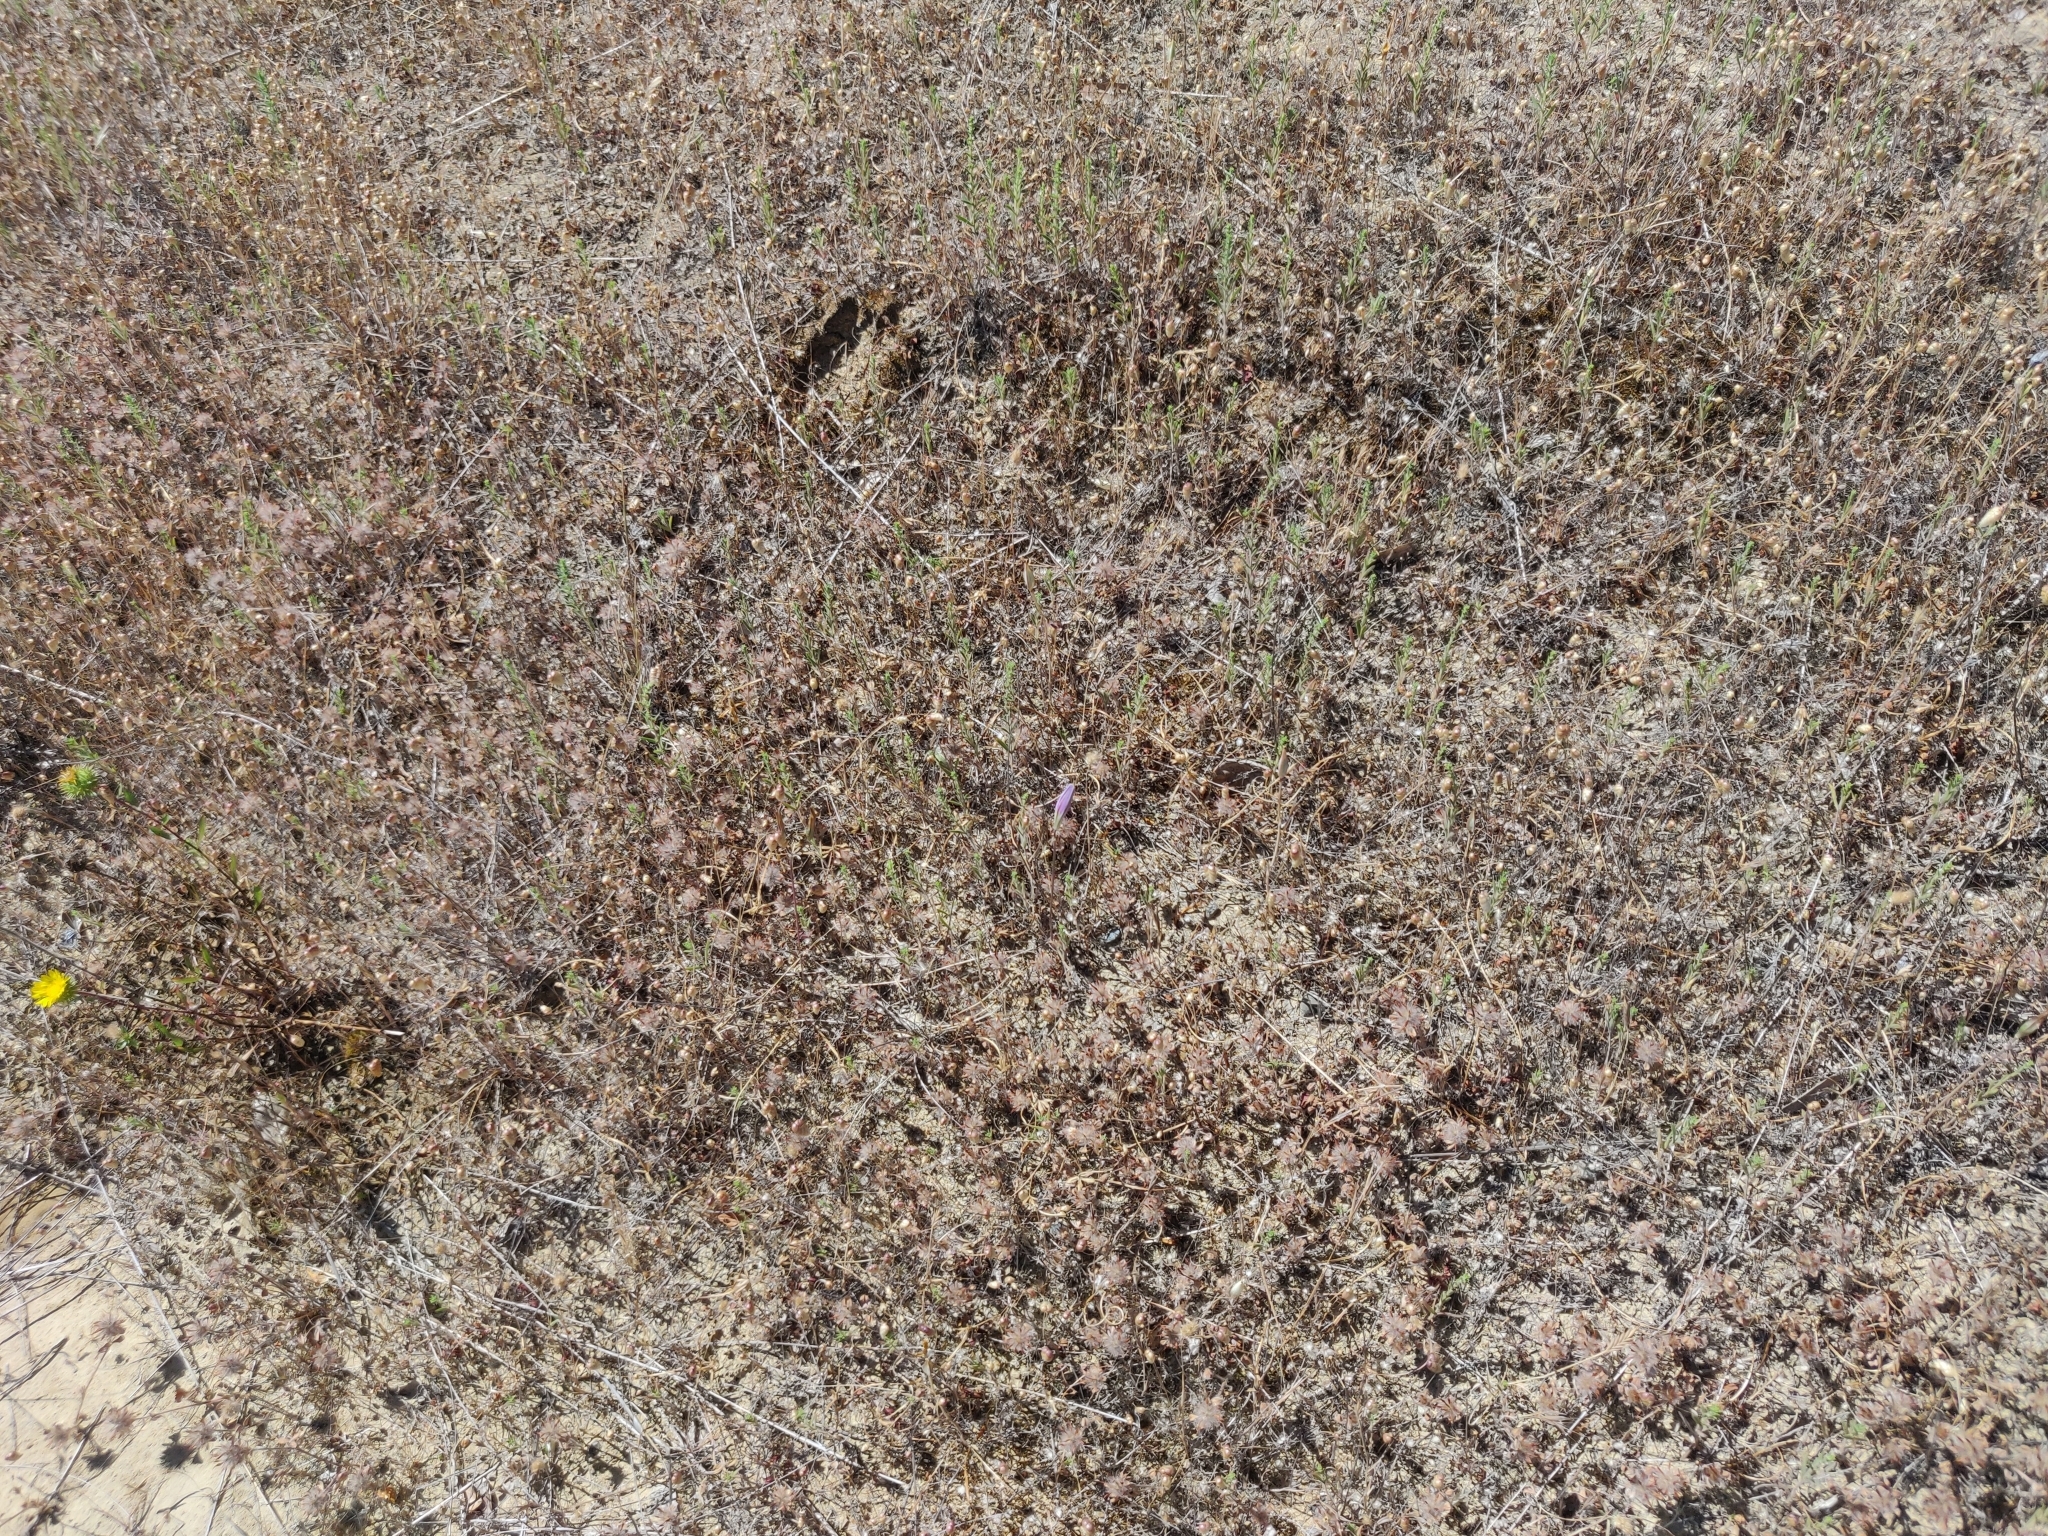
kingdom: Plantae
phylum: Tracheophyta
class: Liliopsida
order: Asparagales
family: Asparagaceae
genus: Brodiaea
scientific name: Brodiaea elegans
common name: Elegant cluster-lily
